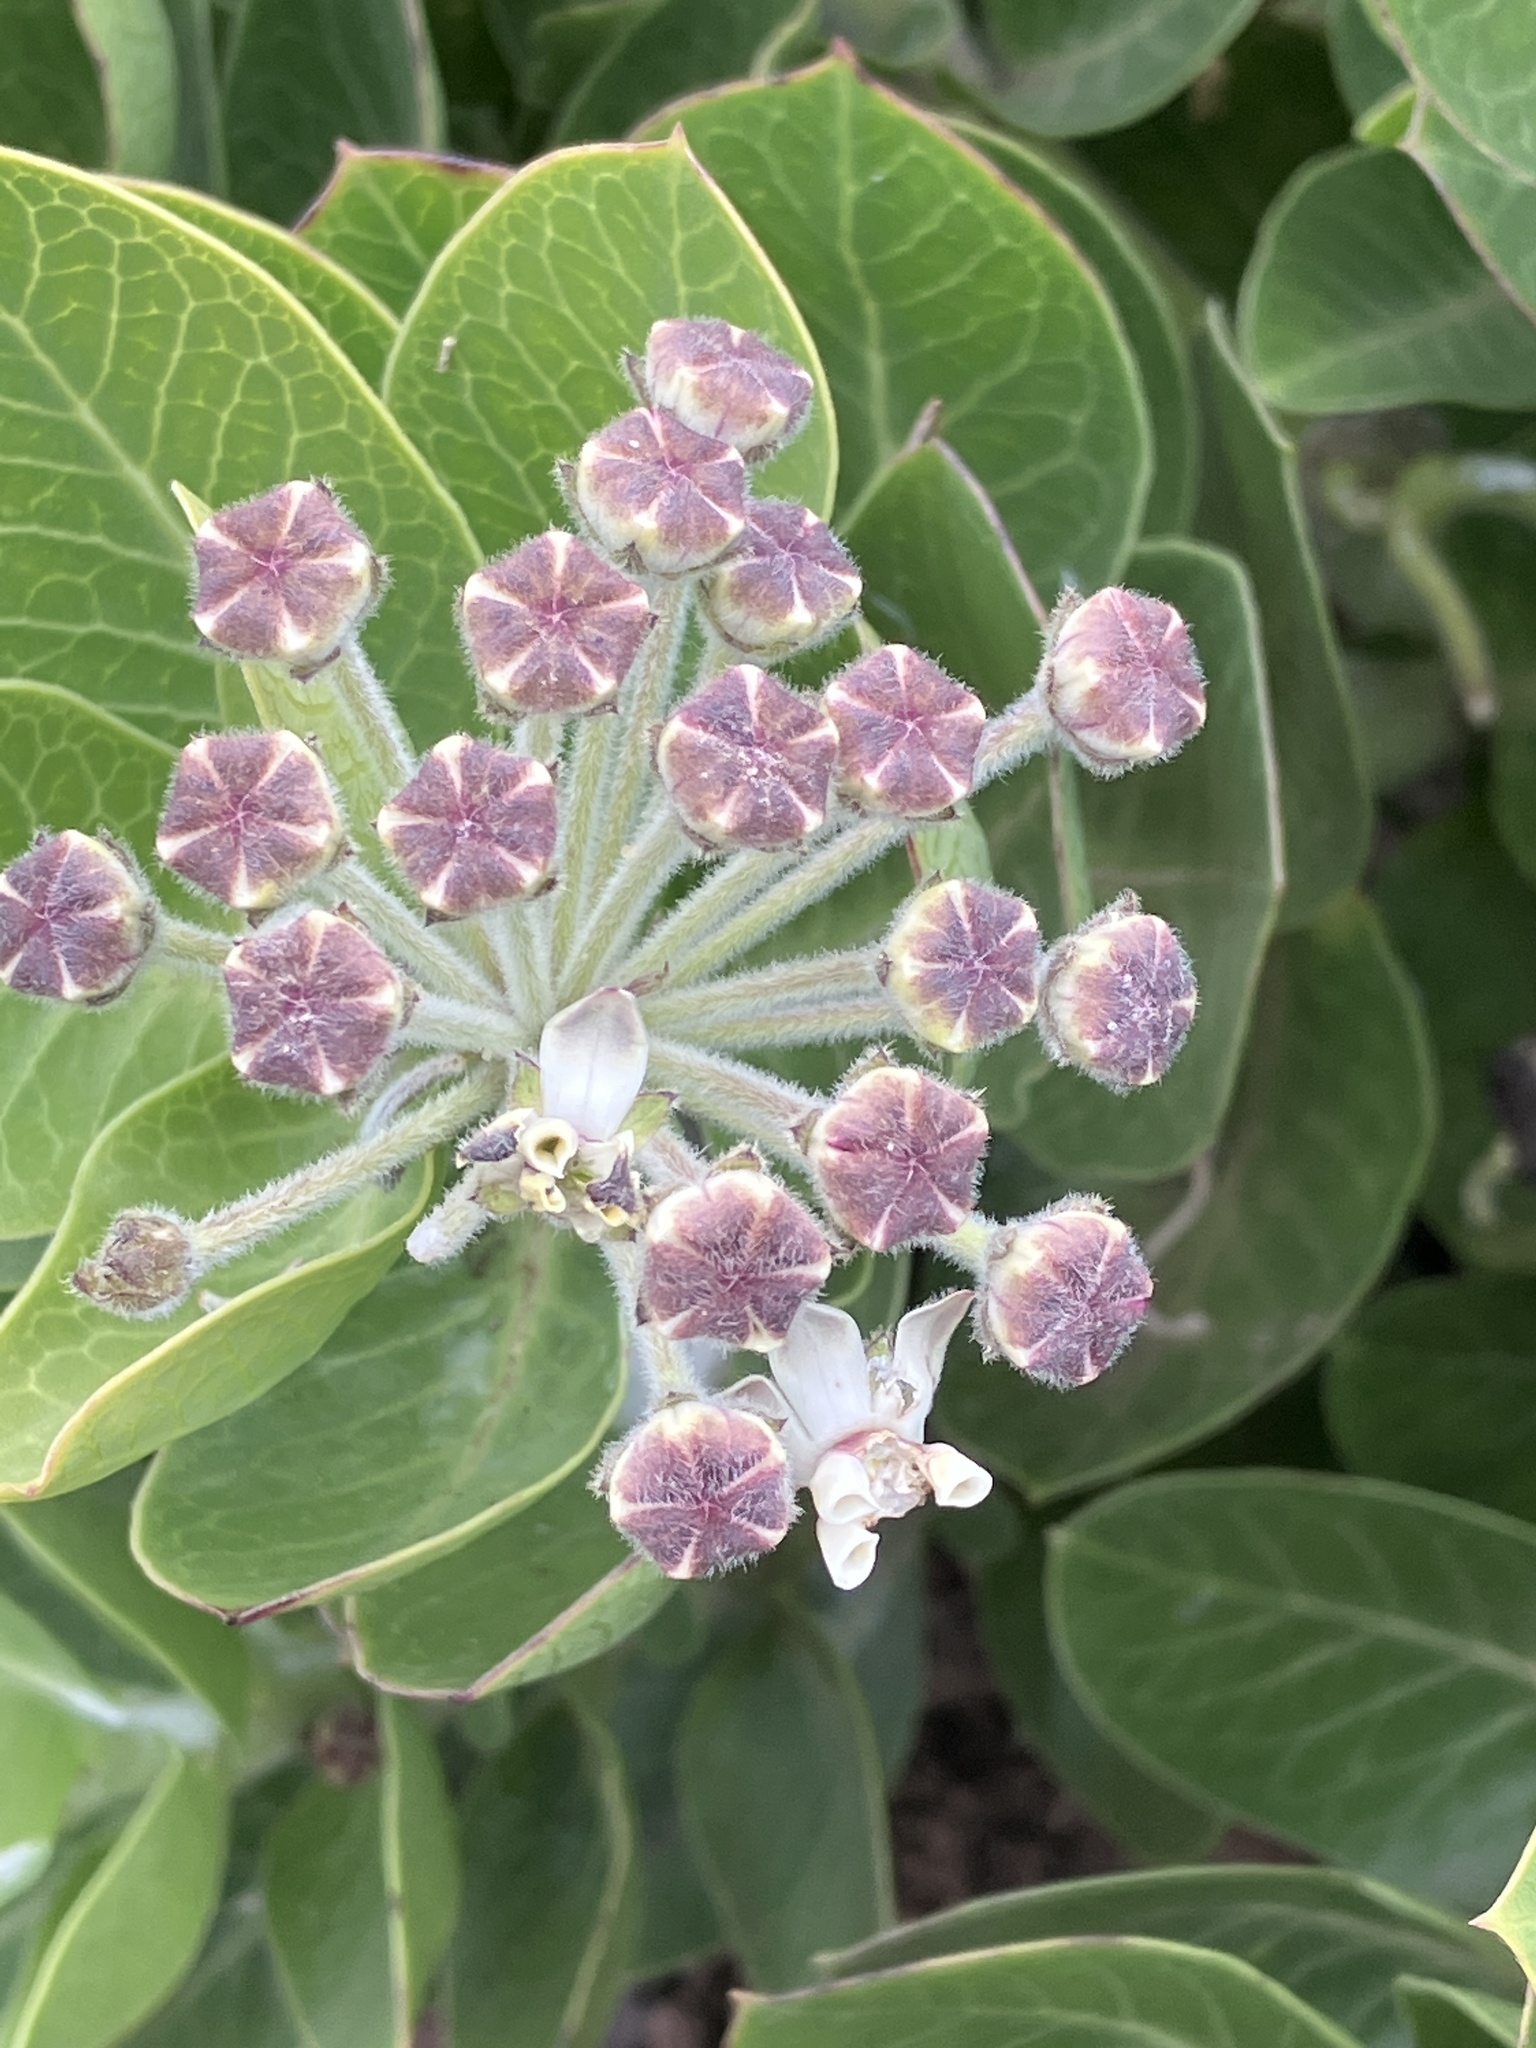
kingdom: Plantae
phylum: Tracheophyta
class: Magnoliopsida
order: Gentianales
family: Apocynaceae
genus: Gomphocarpus
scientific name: Gomphocarpus cancellatus
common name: Wild cotton
